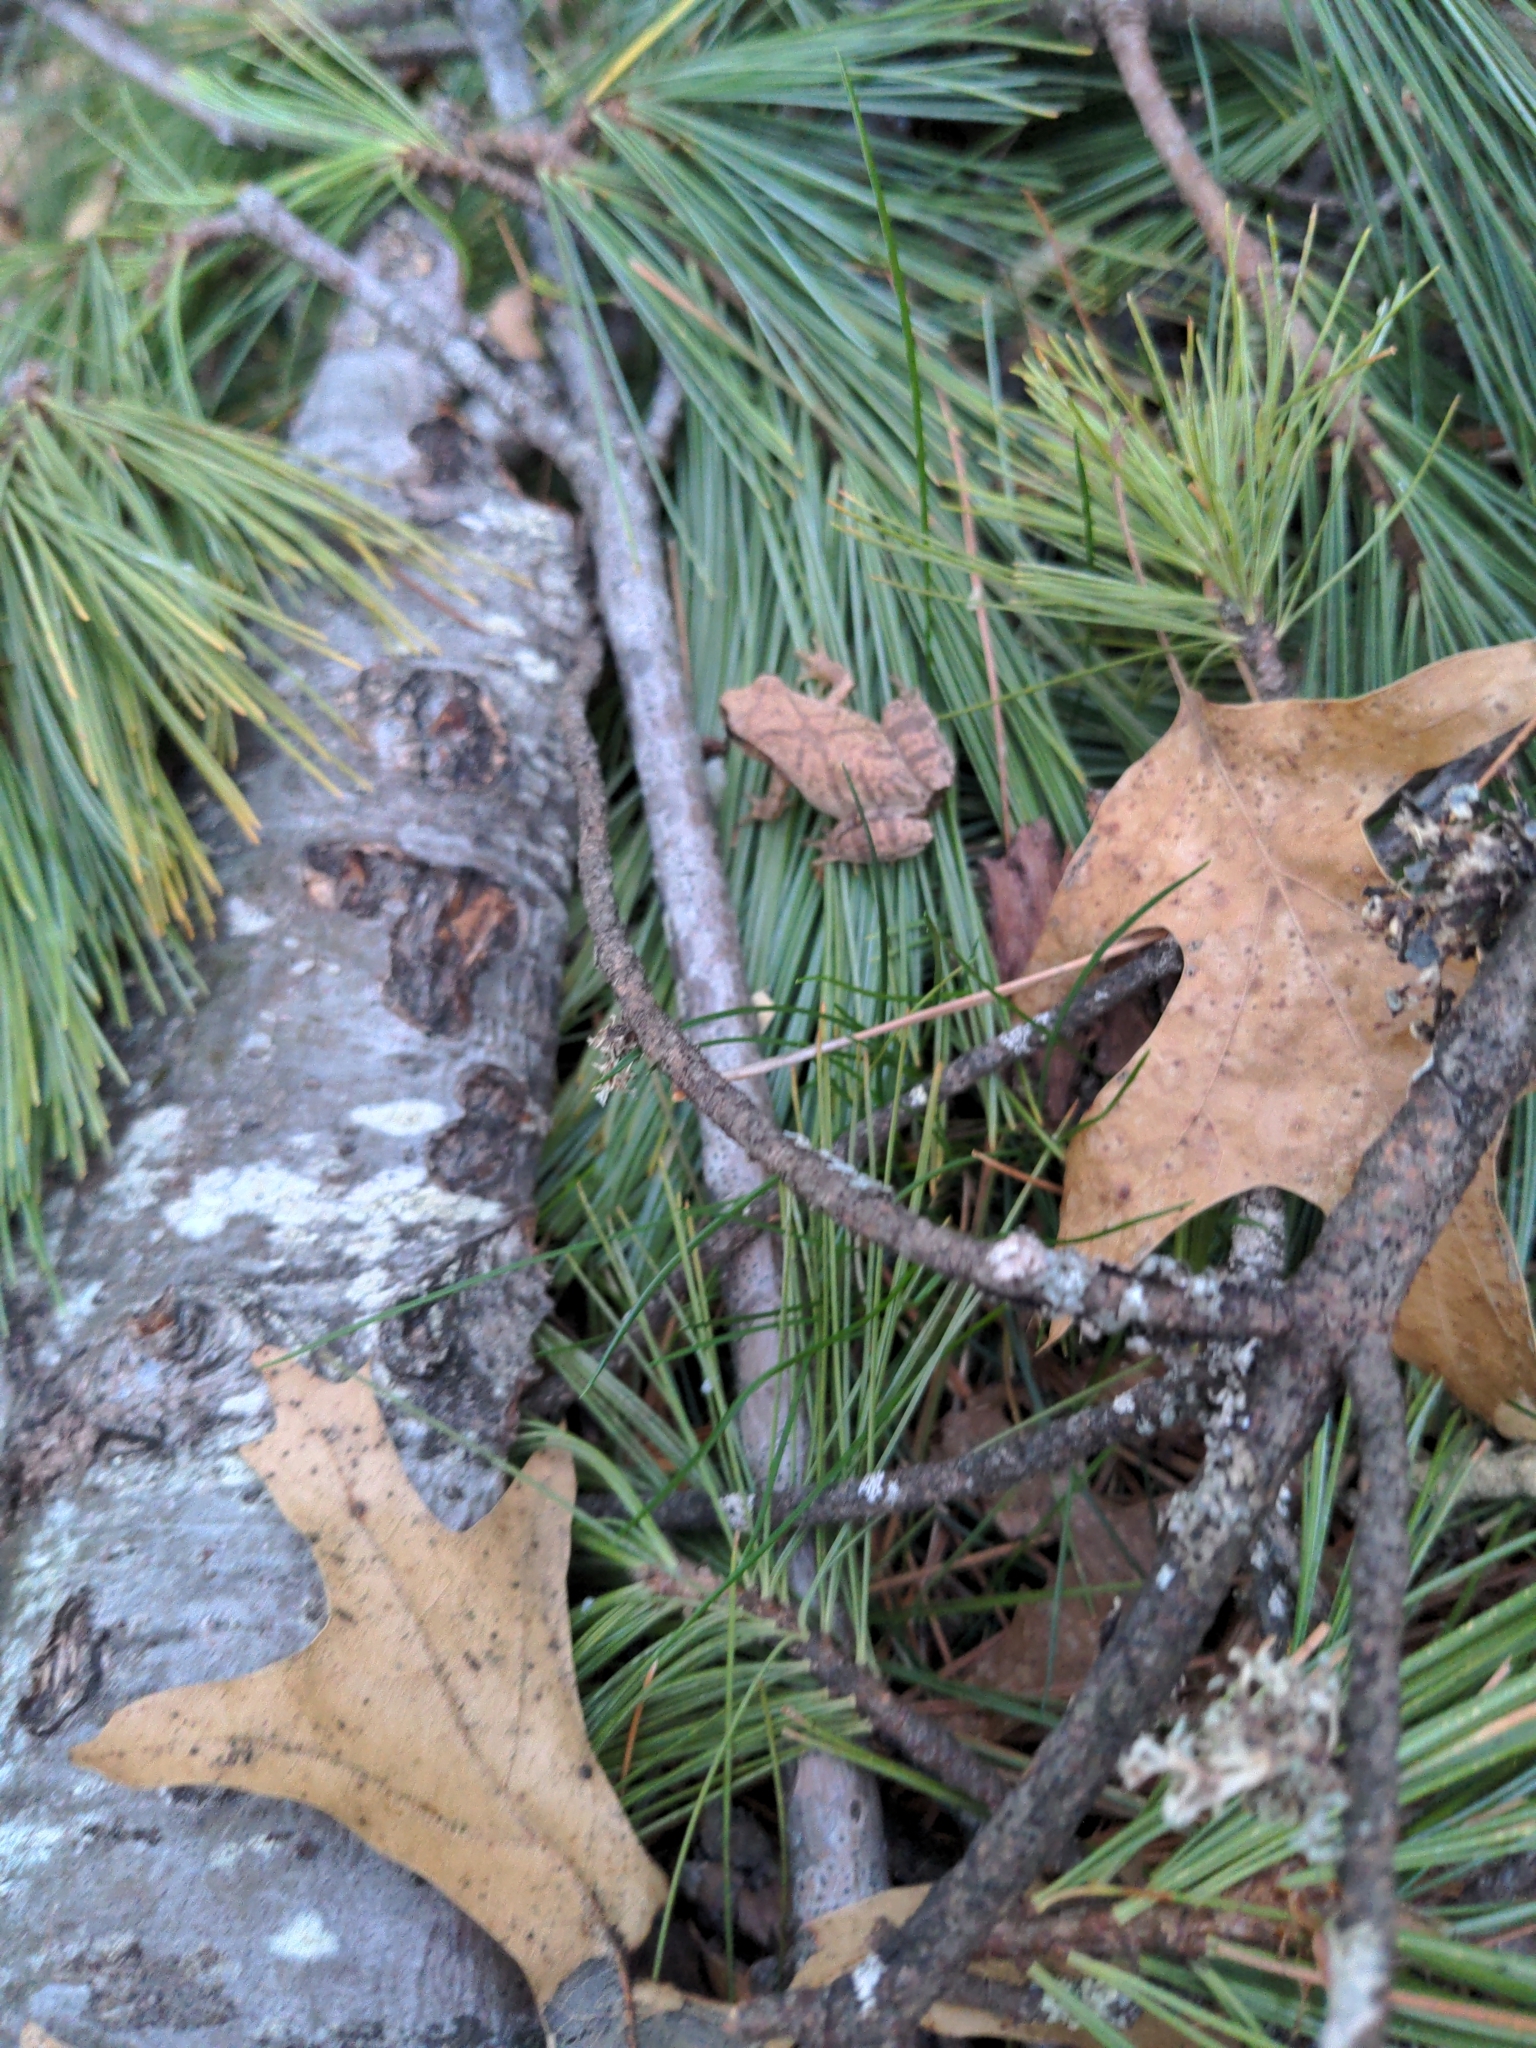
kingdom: Animalia
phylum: Chordata
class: Amphibia
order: Anura
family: Hylidae
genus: Pseudacris
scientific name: Pseudacris crucifer
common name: Spring peeper
